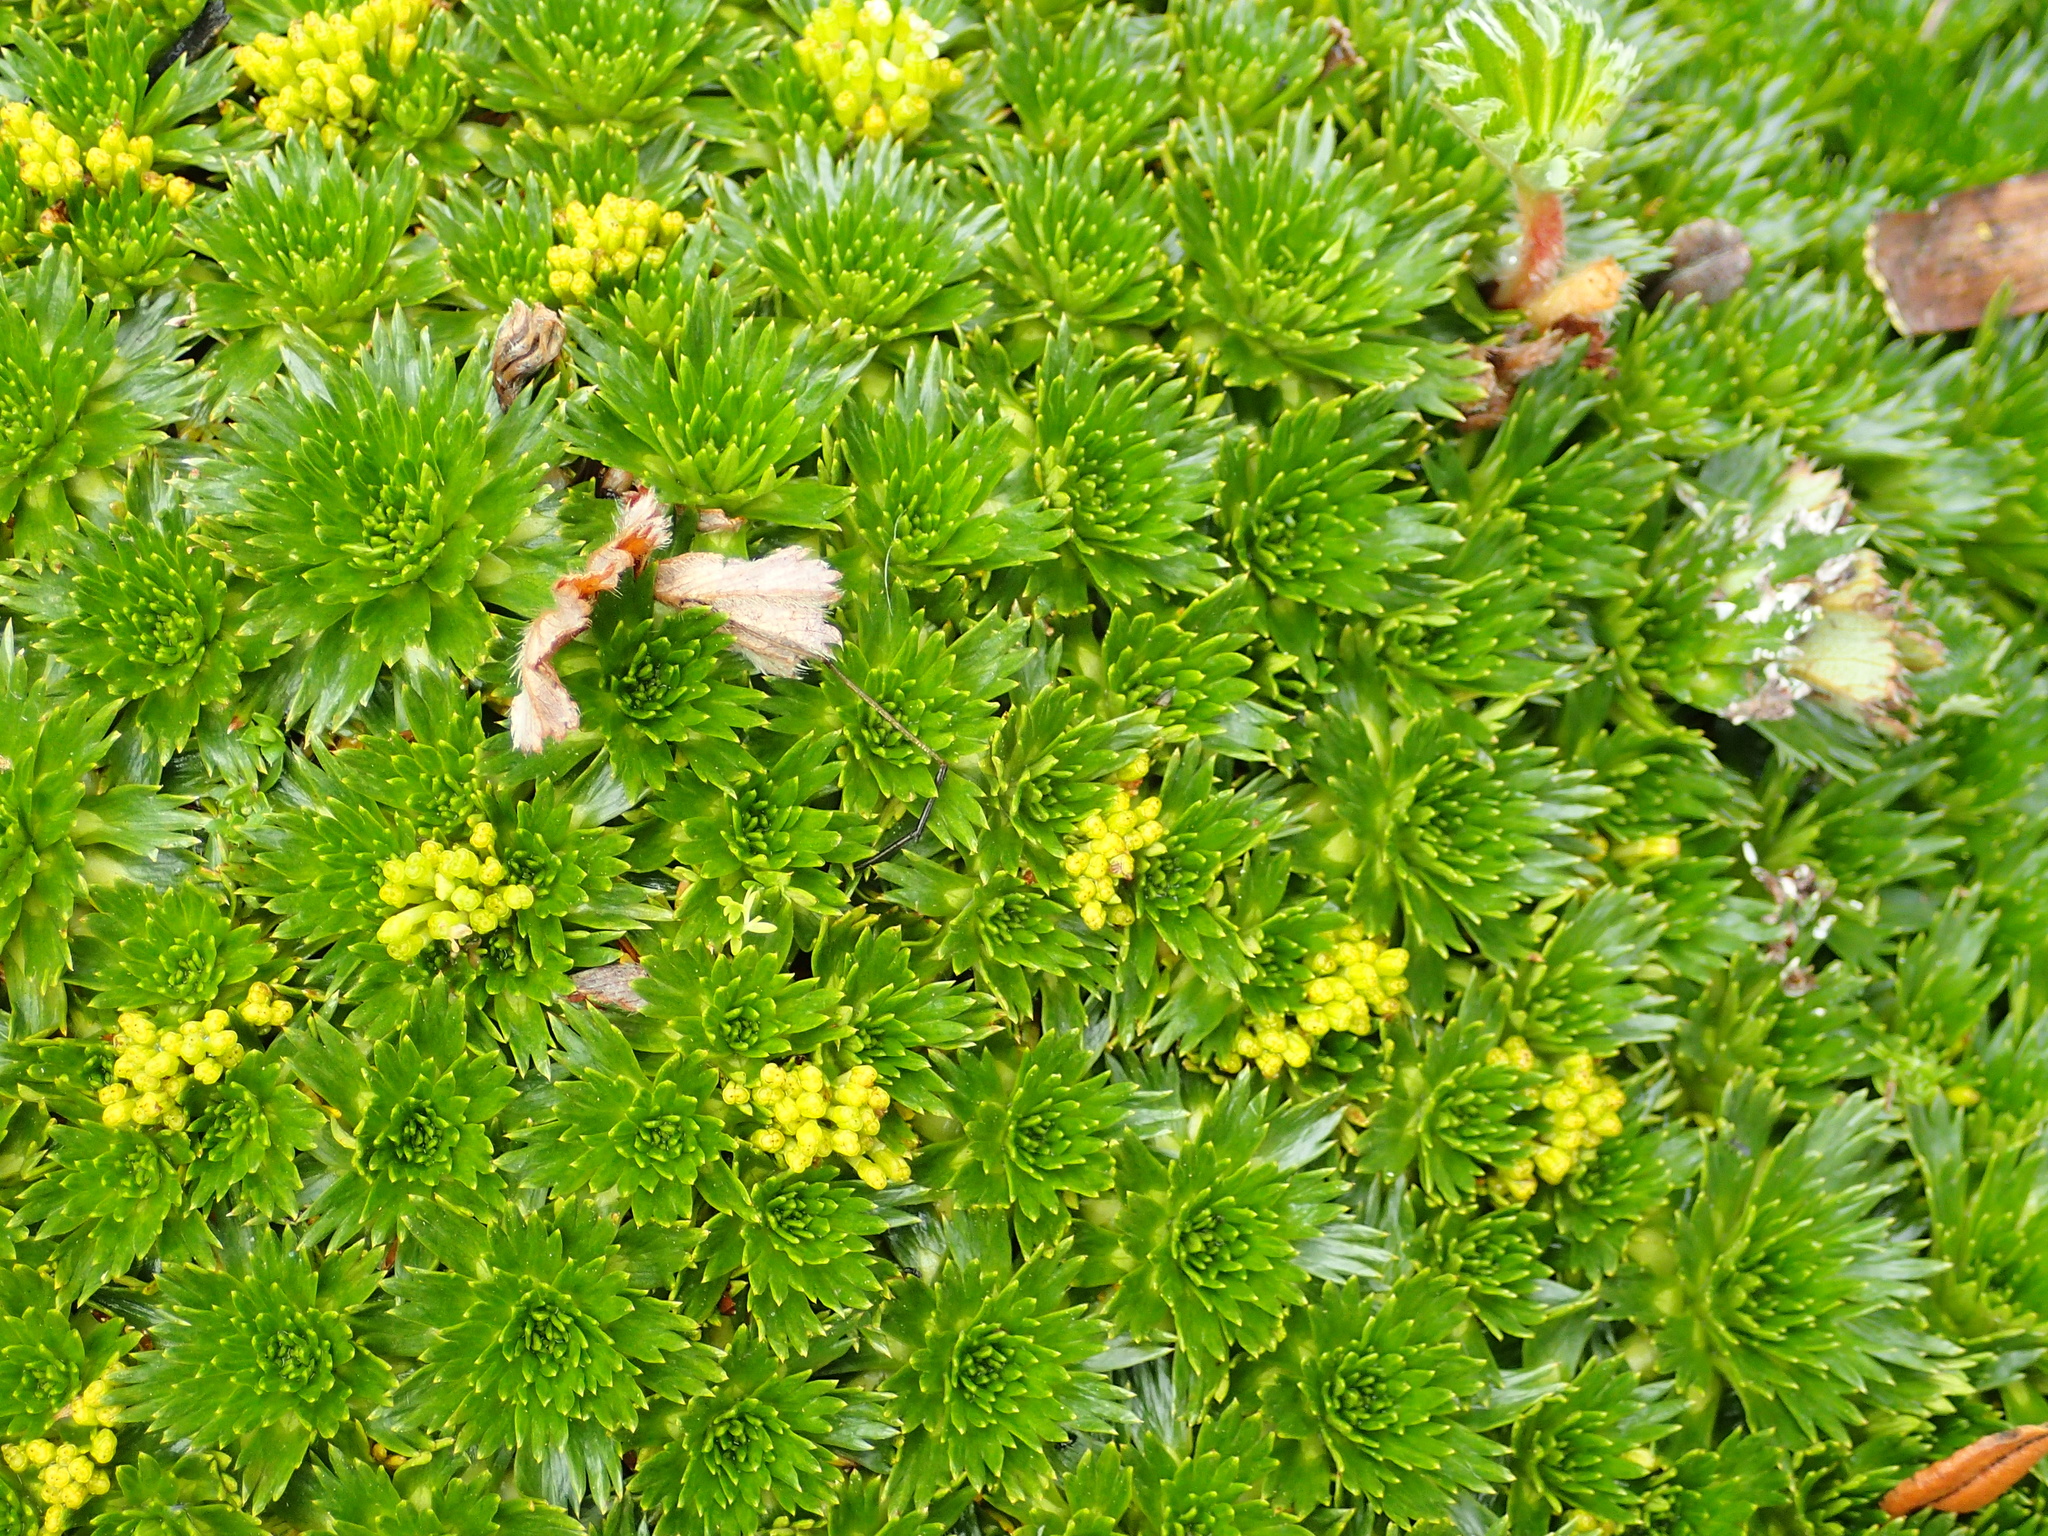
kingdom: Plantae
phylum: Tracheophyta
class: Magnoliopsida
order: Apiales
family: Apiaceae
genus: Azorella
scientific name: Azorella pedunculata
